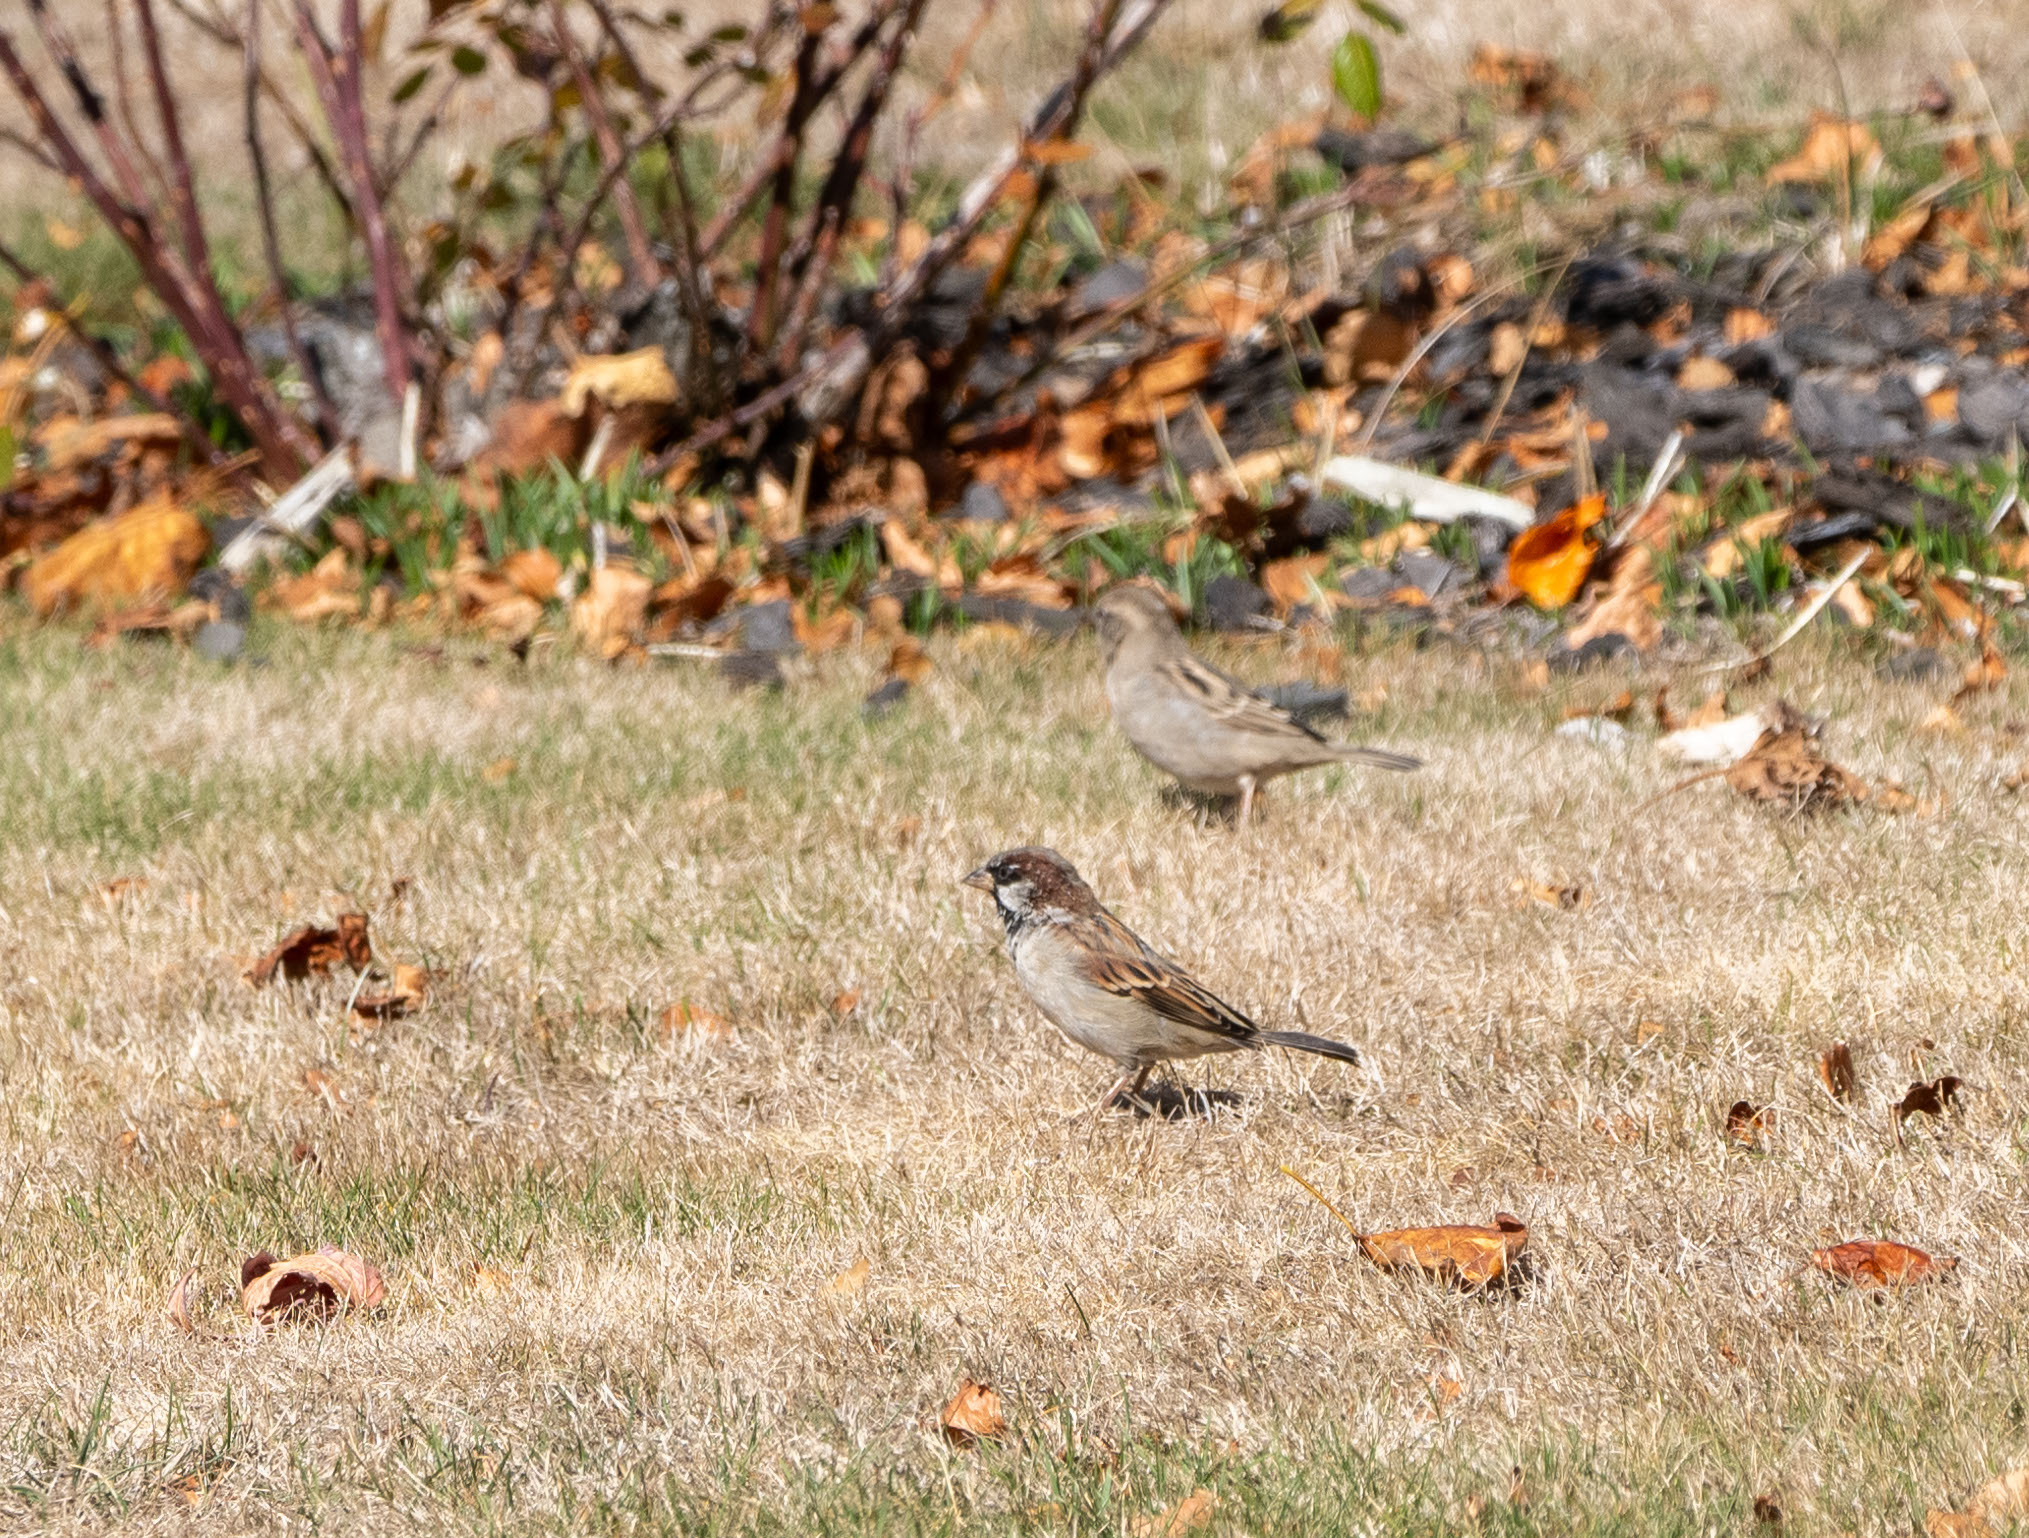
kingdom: Animalia
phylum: Chordata
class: Aves
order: Passeriformes
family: Passeridae
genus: Passer
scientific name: Passer domesticus
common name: House sparrow
